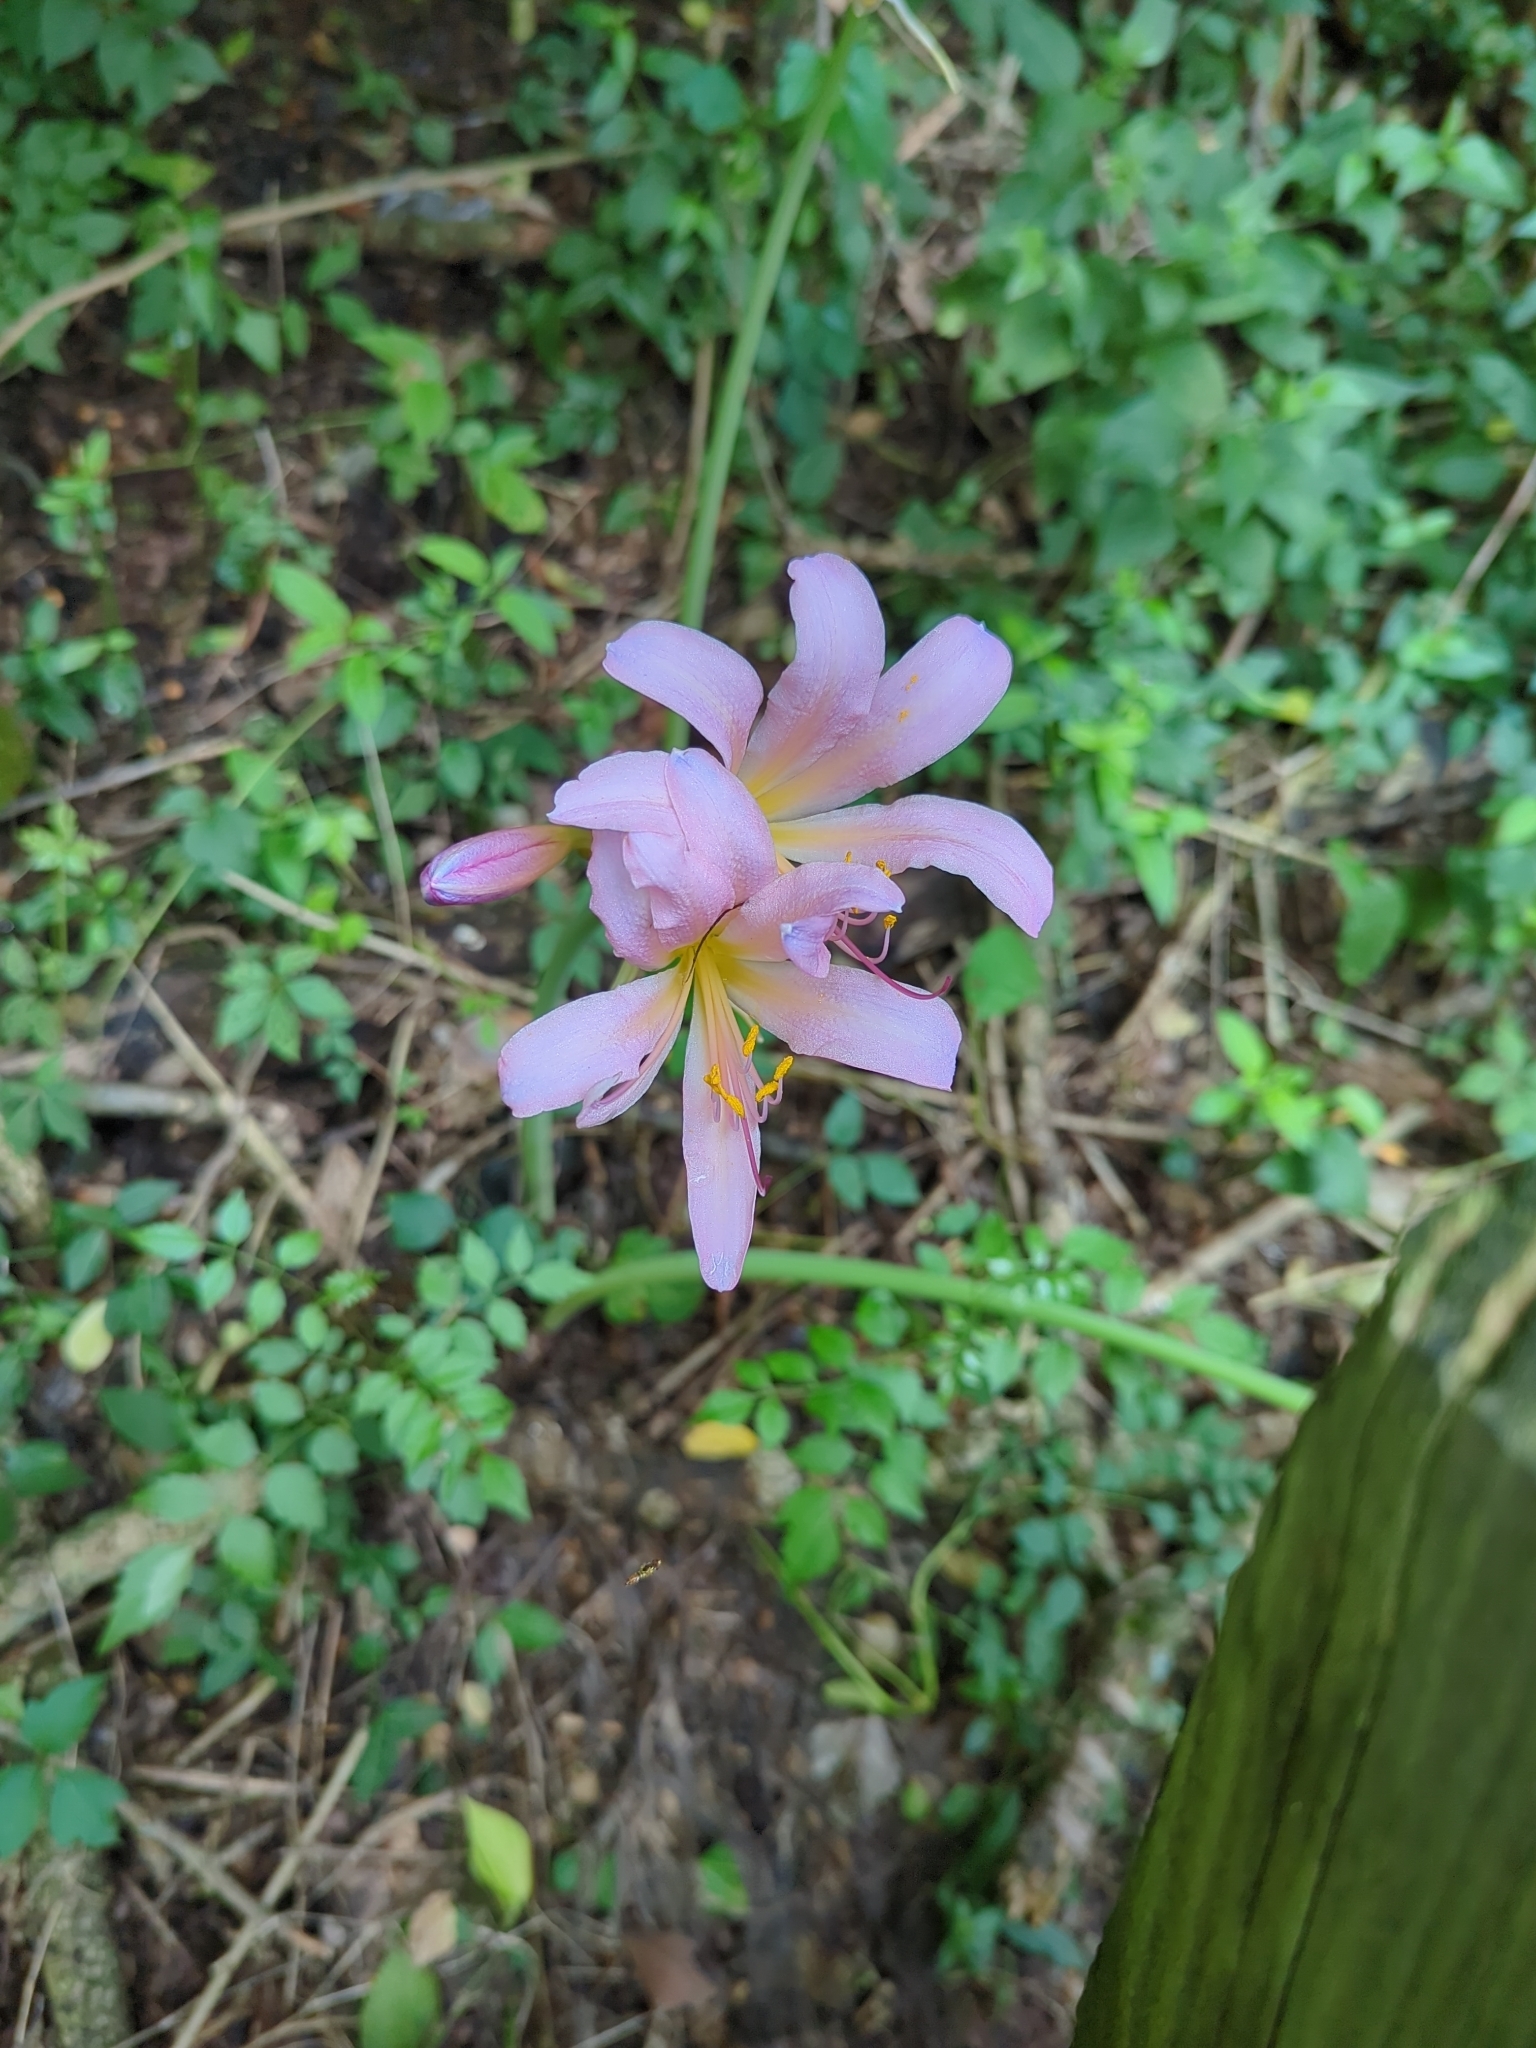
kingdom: Plantae
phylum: Tracheophyta
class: Liliopsida
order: Asparagales
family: Amaryllidaceae
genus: Lycoris
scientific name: Lycoris squamigera
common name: Magic-lily
